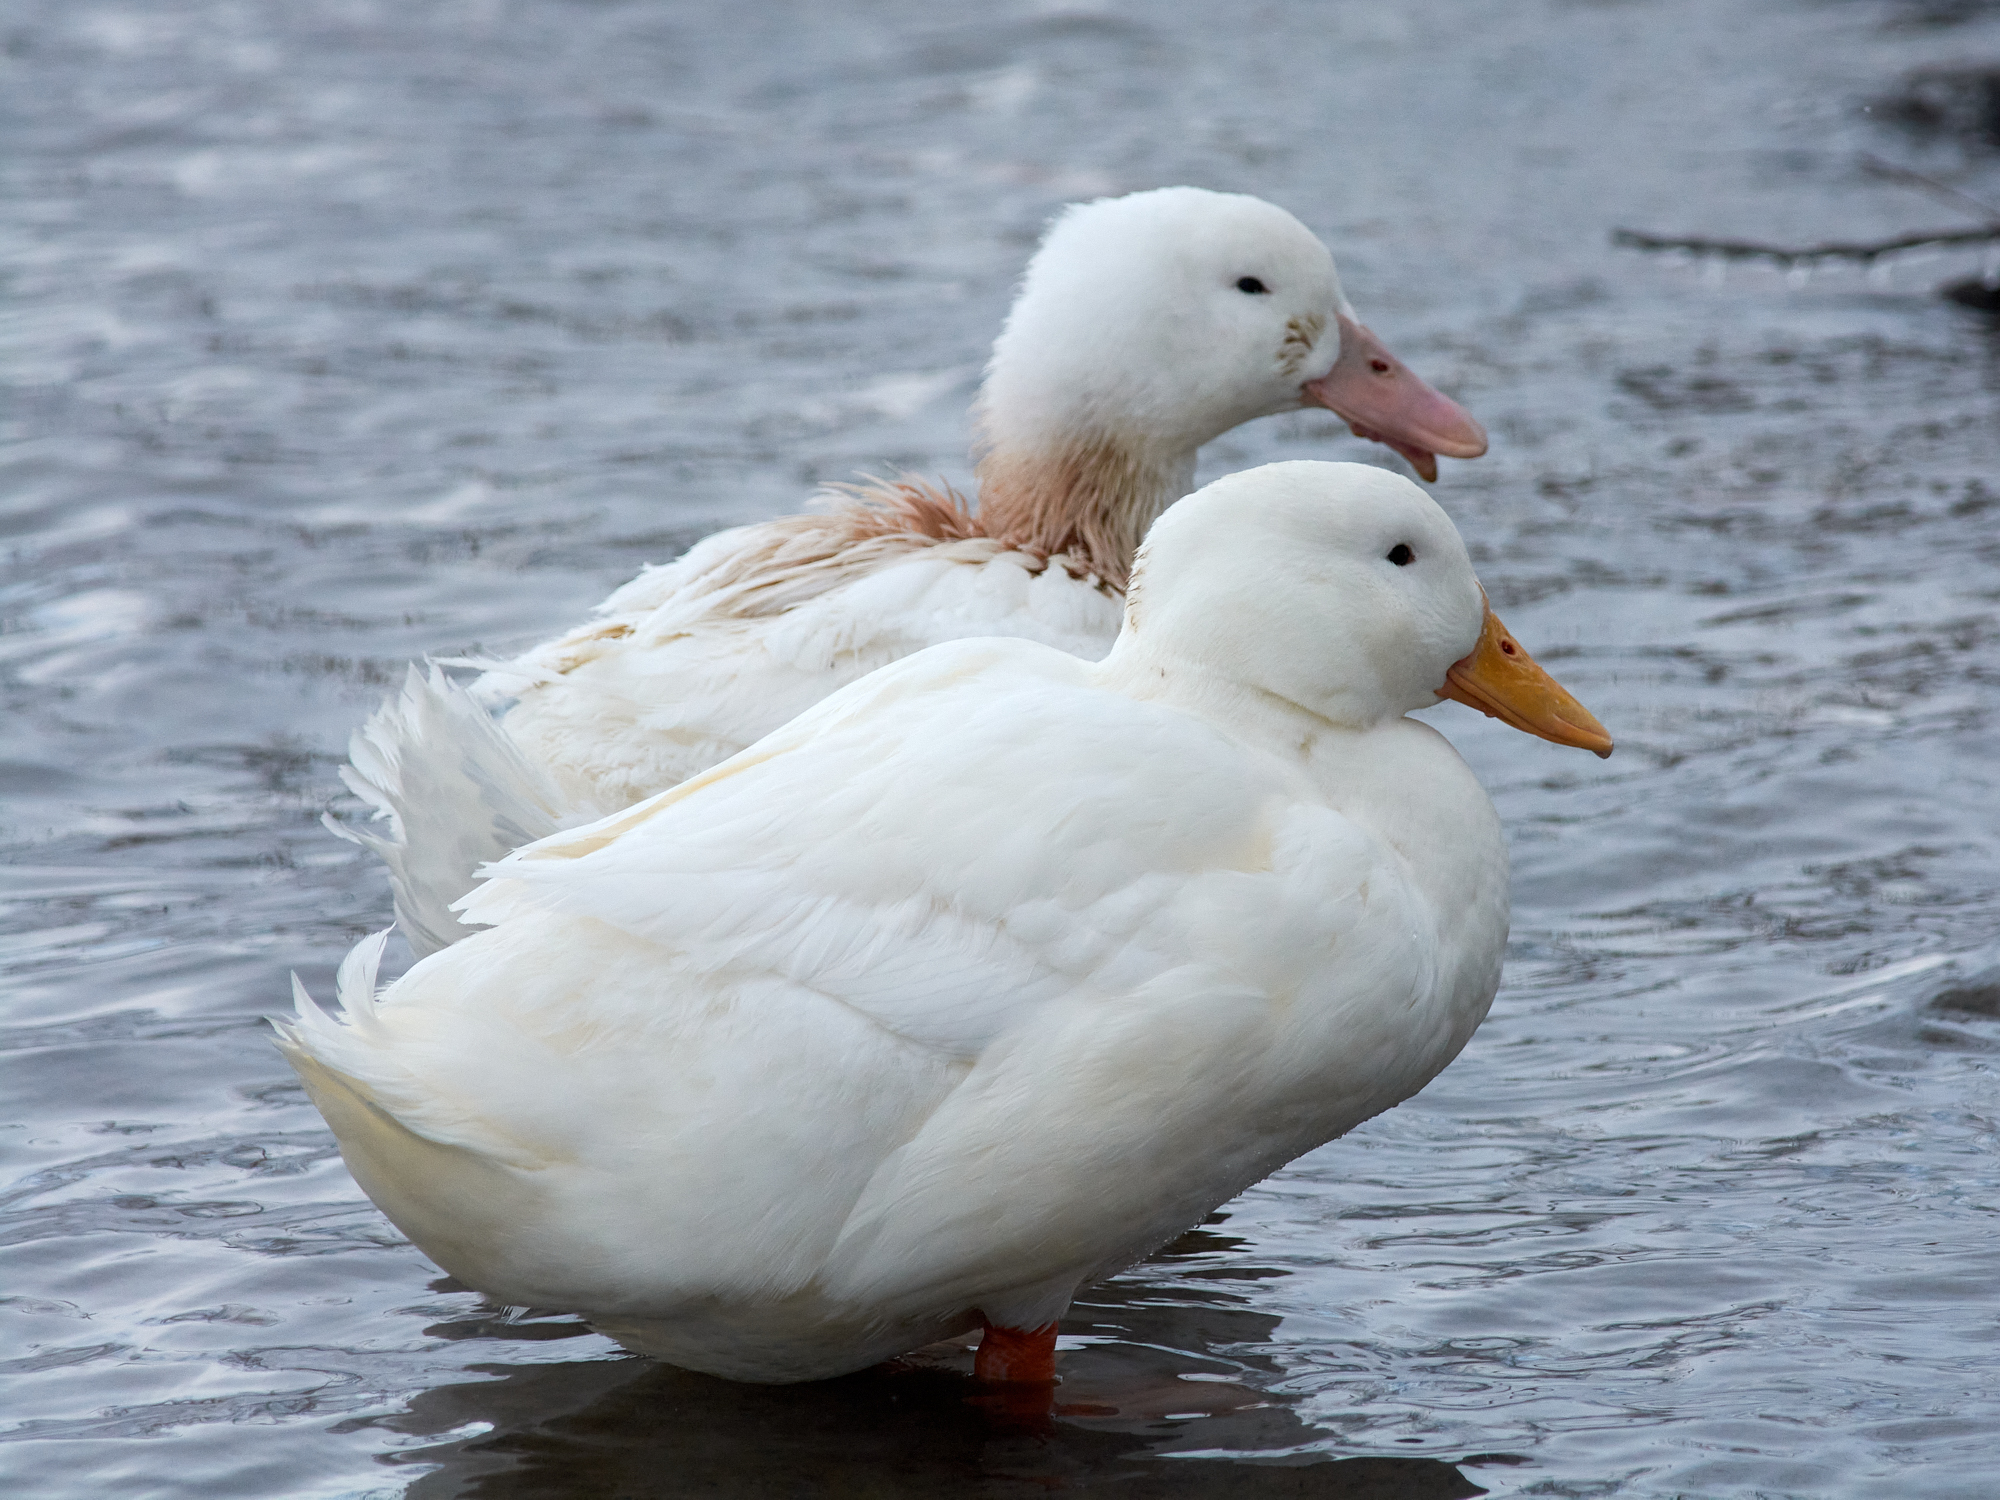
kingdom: Animalia
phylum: Chordata
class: Aves
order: Anseriformes
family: Anatidae
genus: Anas
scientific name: Anas platyrhynchos
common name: Mallard
